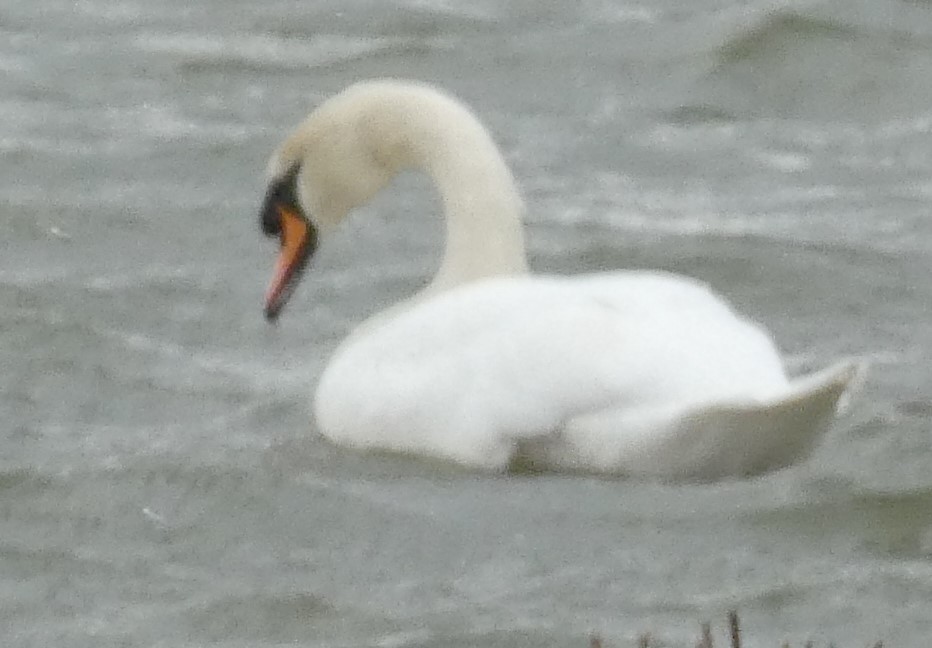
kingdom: Animalia
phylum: Chordata
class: Aves
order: Anseriformes
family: Anatidae
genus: Cygnus
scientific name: Cygnus olor
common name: Mute swan
